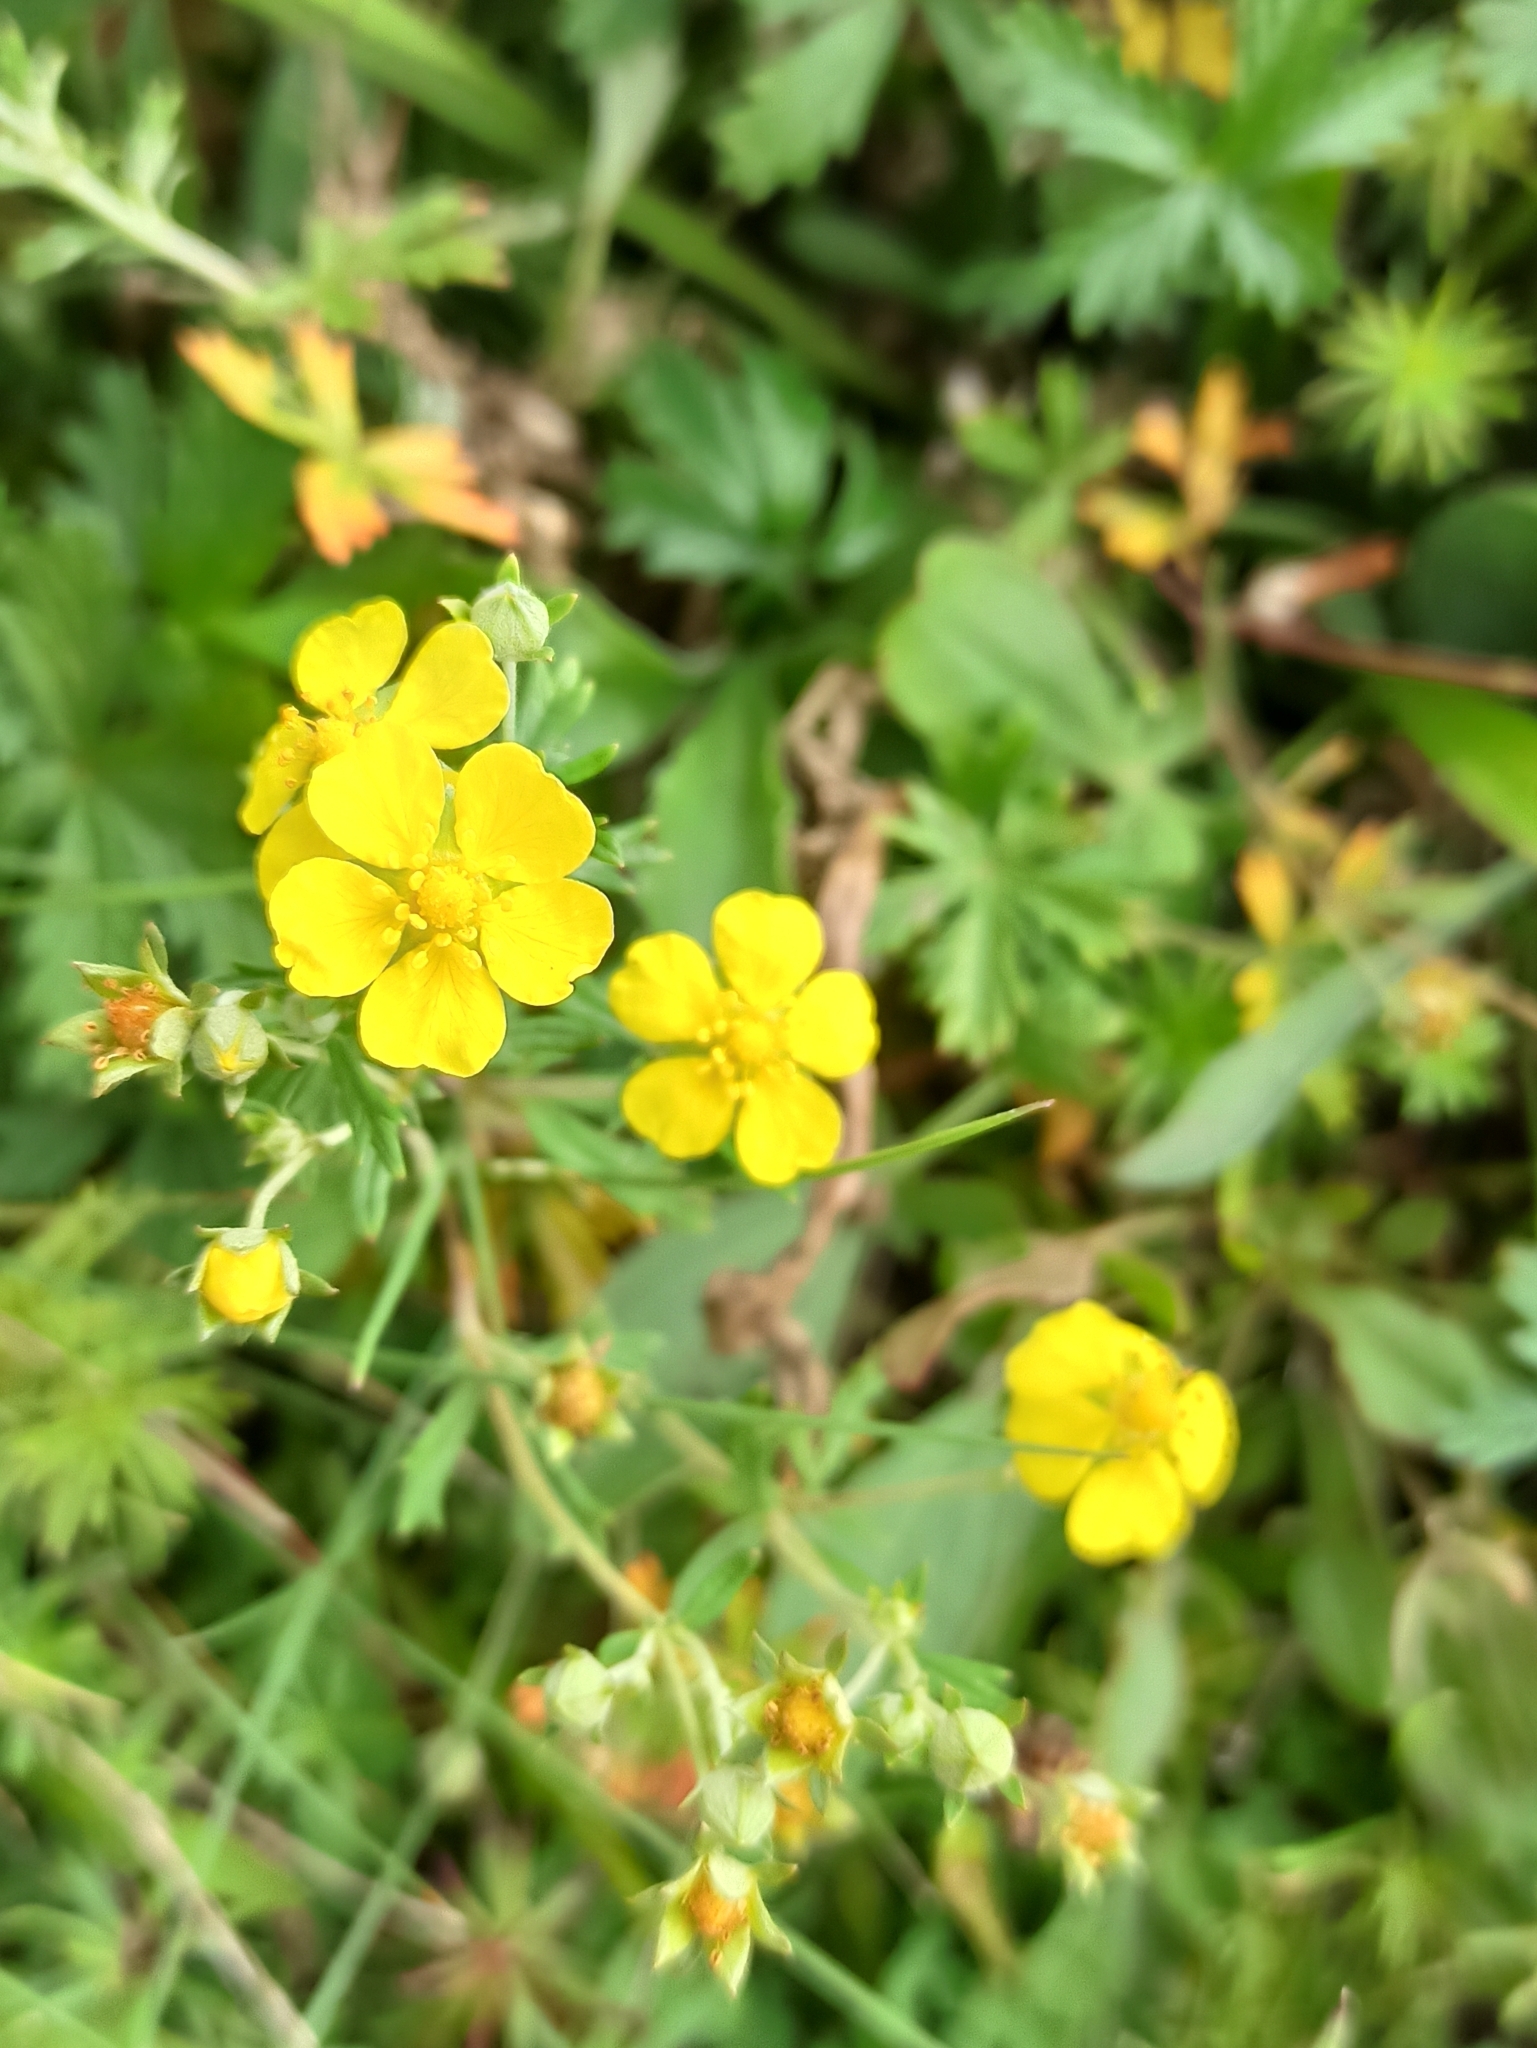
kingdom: Plantae
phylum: Tracheophyta
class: Magnoliopsida
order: Rosales
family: Rosaceae
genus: Potentilla
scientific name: Potentilla argentea
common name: Hoary cinquefoil
